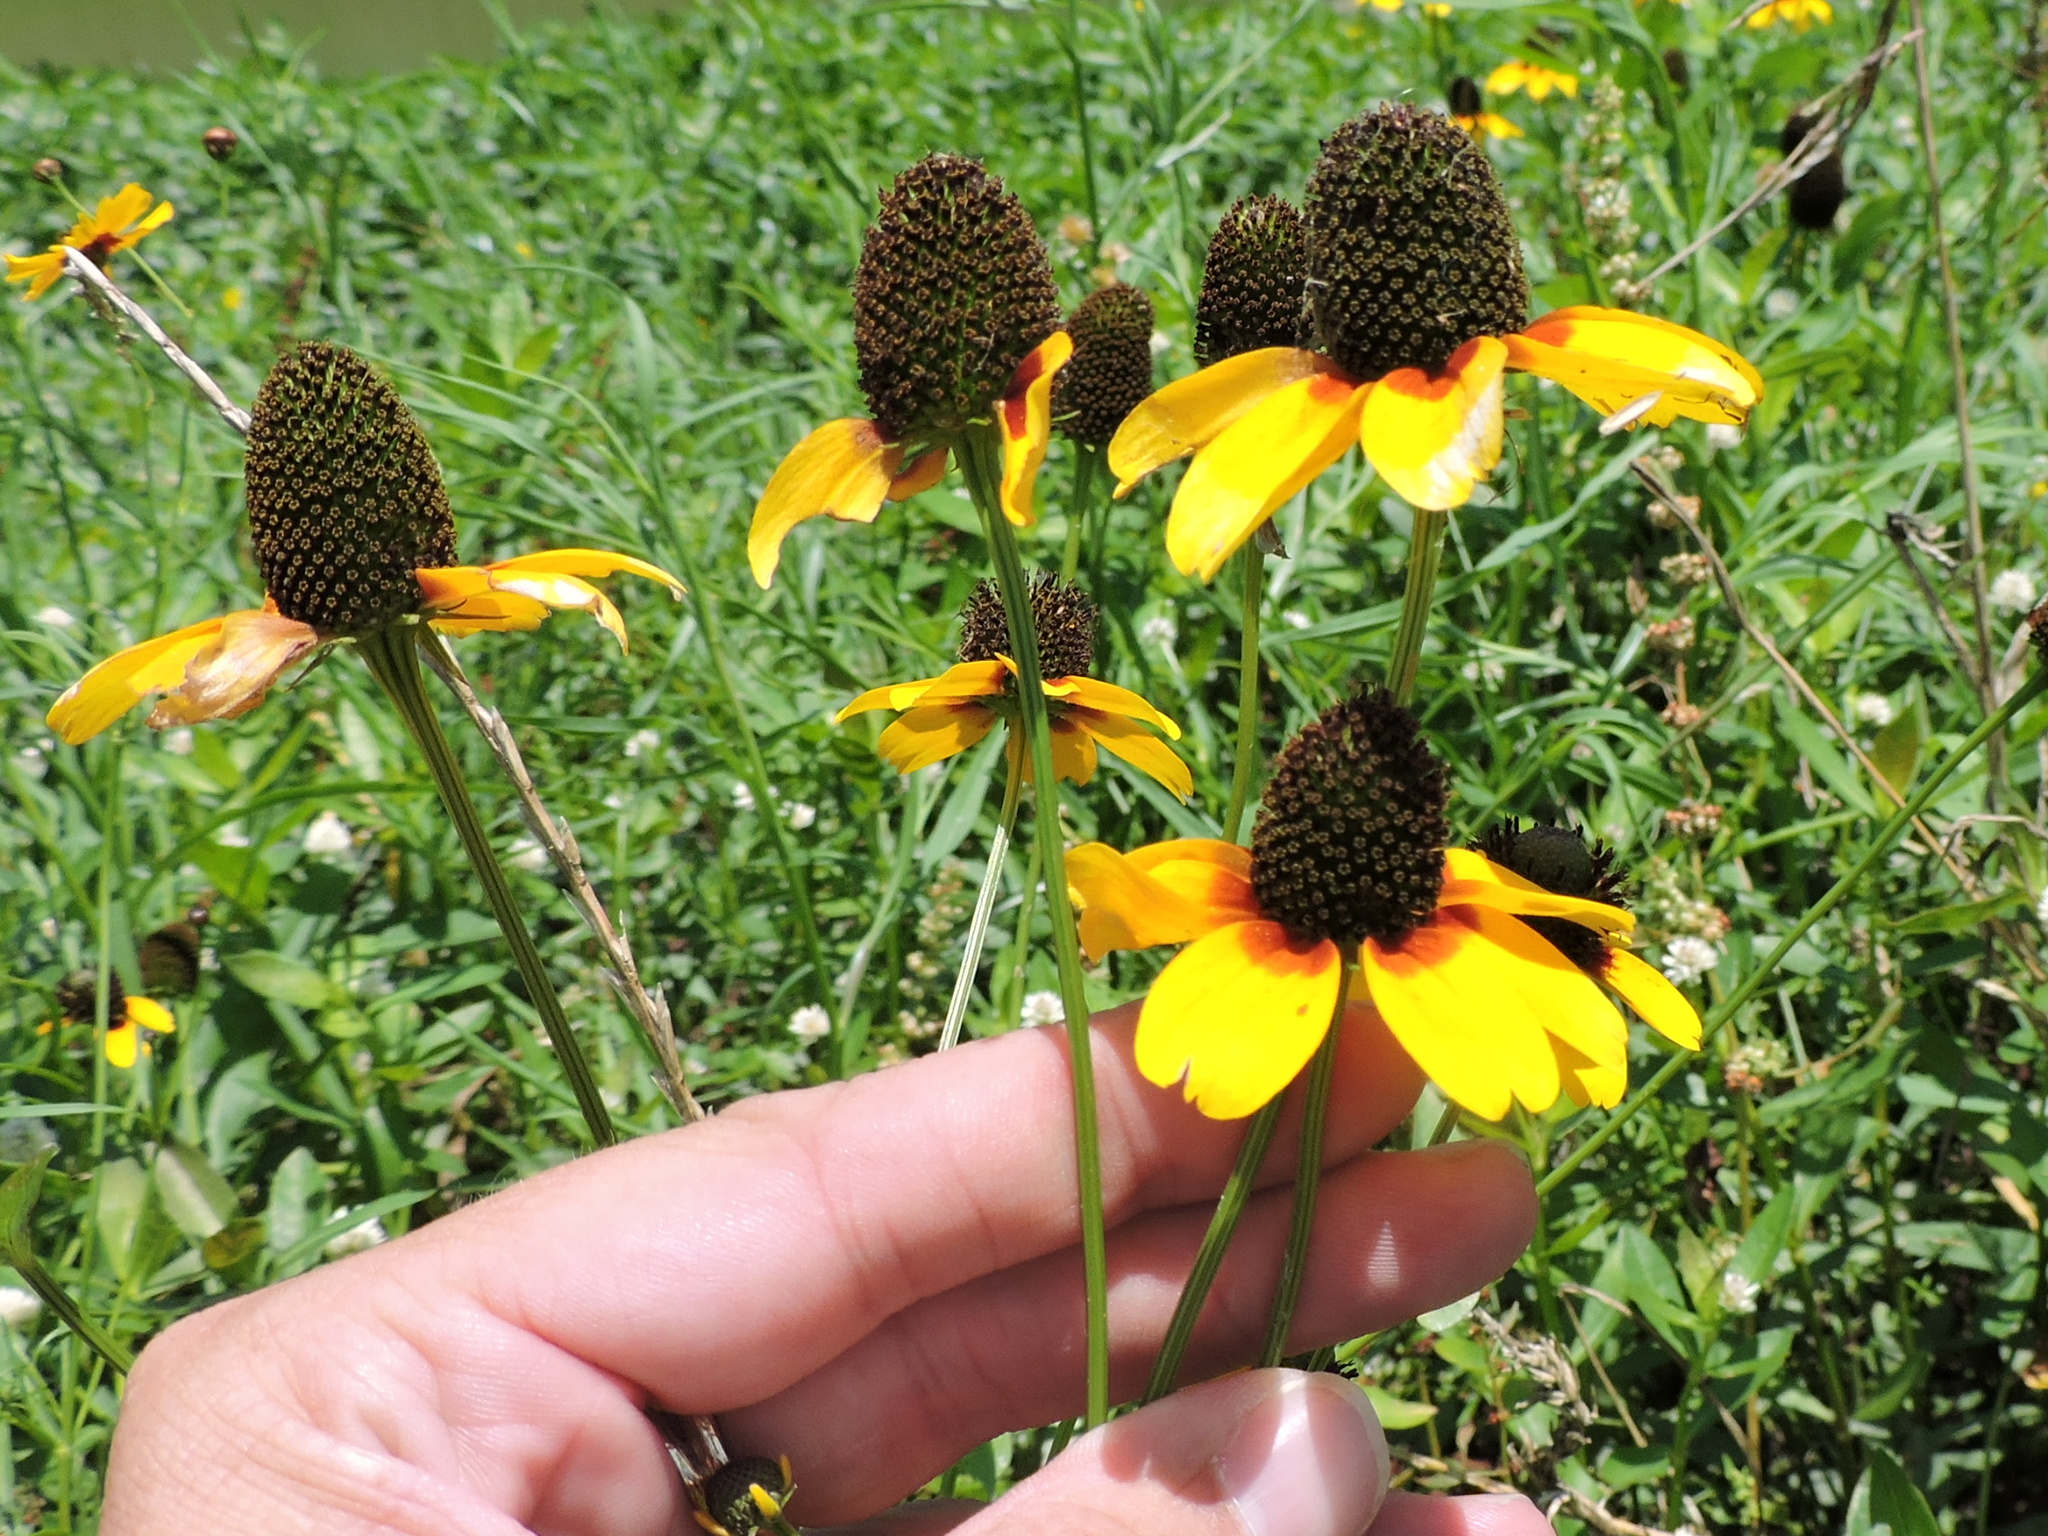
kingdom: Plantae
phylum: Tracheophyta
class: Magnoliopsida
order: Asterales
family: Asteraceae
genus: Rudbeckia
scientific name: Rudbeckia amplexicaulis
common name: Clasping-leaf coneflower
